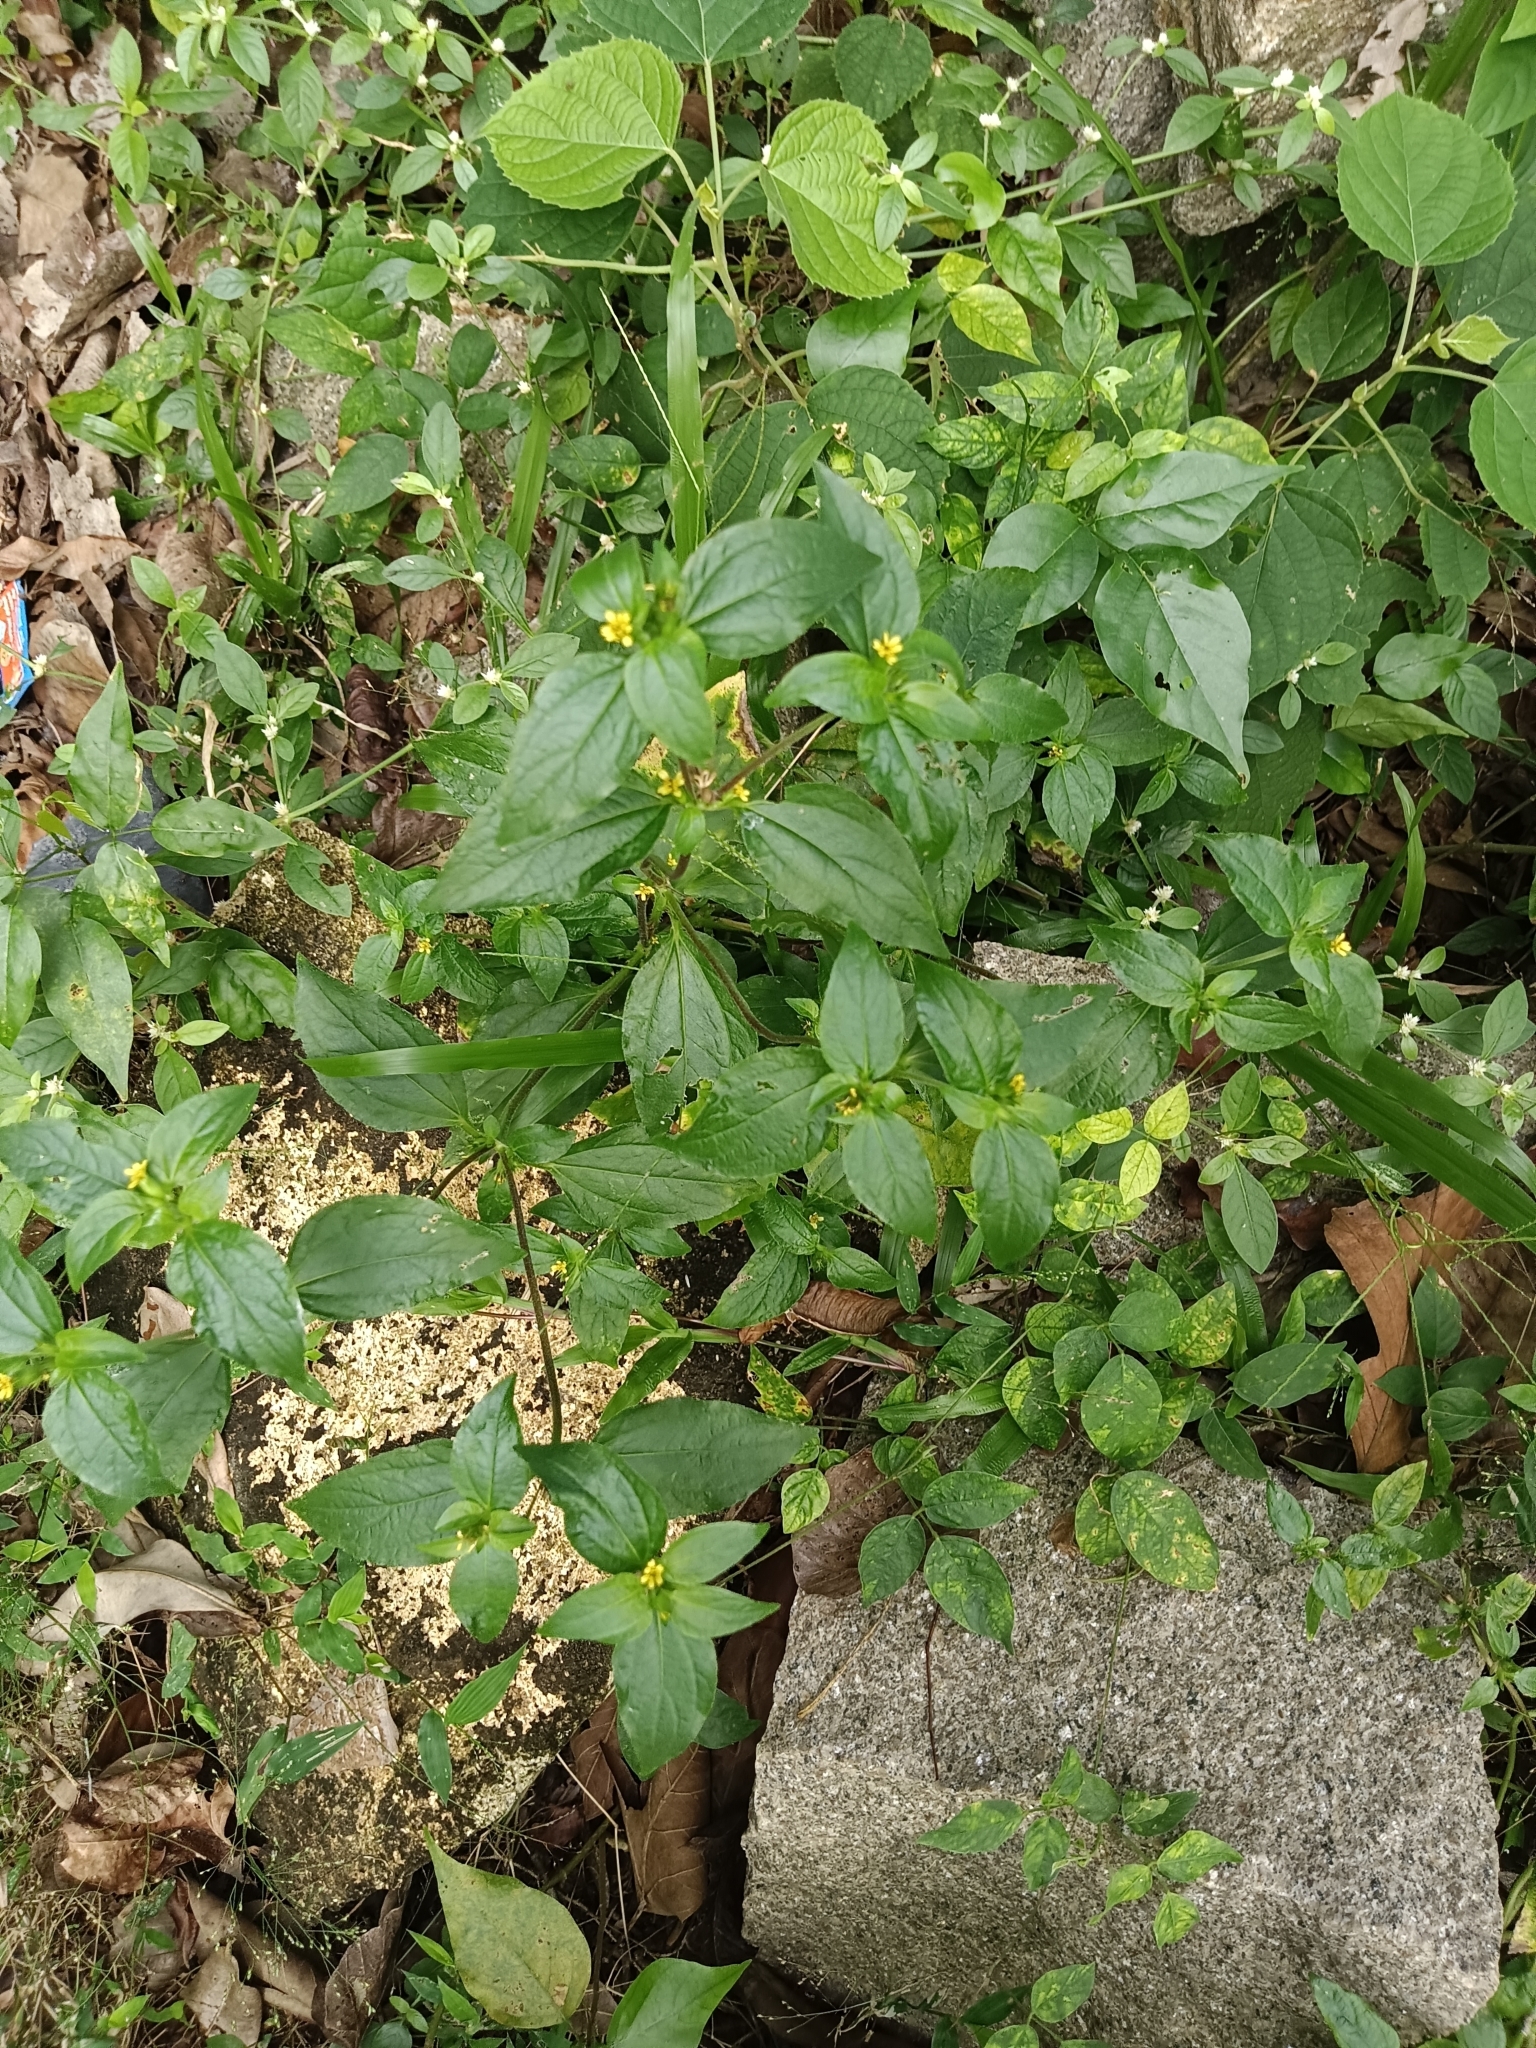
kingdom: Plantae
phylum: Tracheophyta
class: Magnoliopsida
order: Asterales
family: Asteraceae
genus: Synedrella
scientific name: Synedrella nodiflora
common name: Nodeweed
